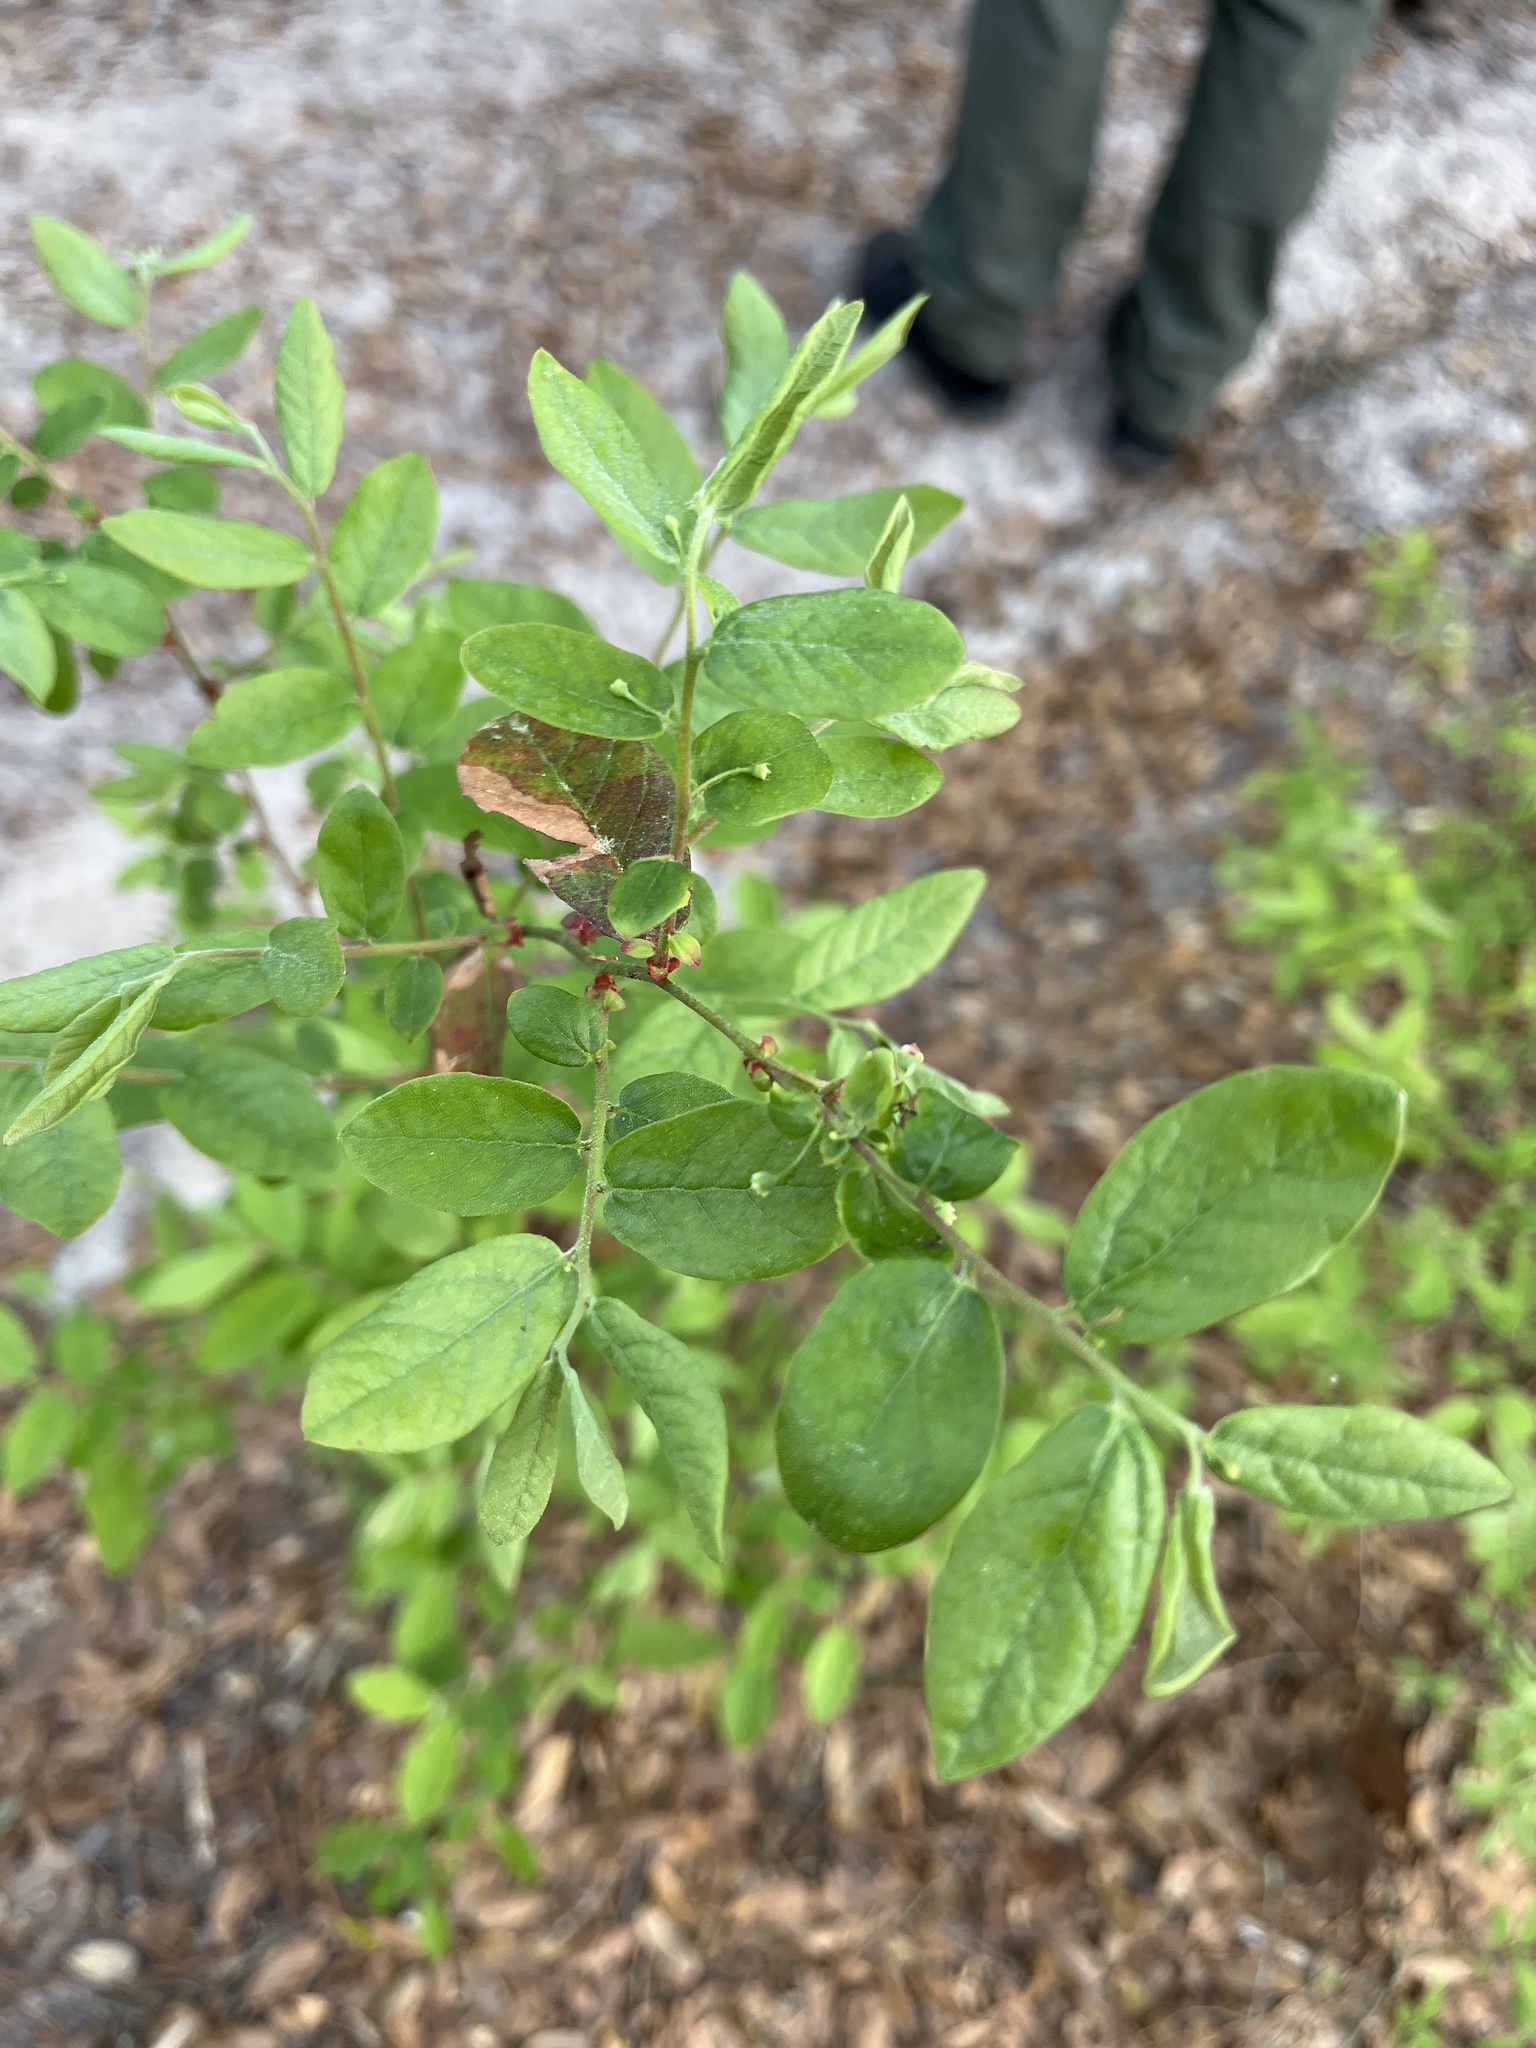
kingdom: Plantae
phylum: Tracheophyta
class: Magnoliopsida
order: Ericales
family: Ericaceae
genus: Vaccinium
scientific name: Vaccinium stamineum
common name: Deerberry
